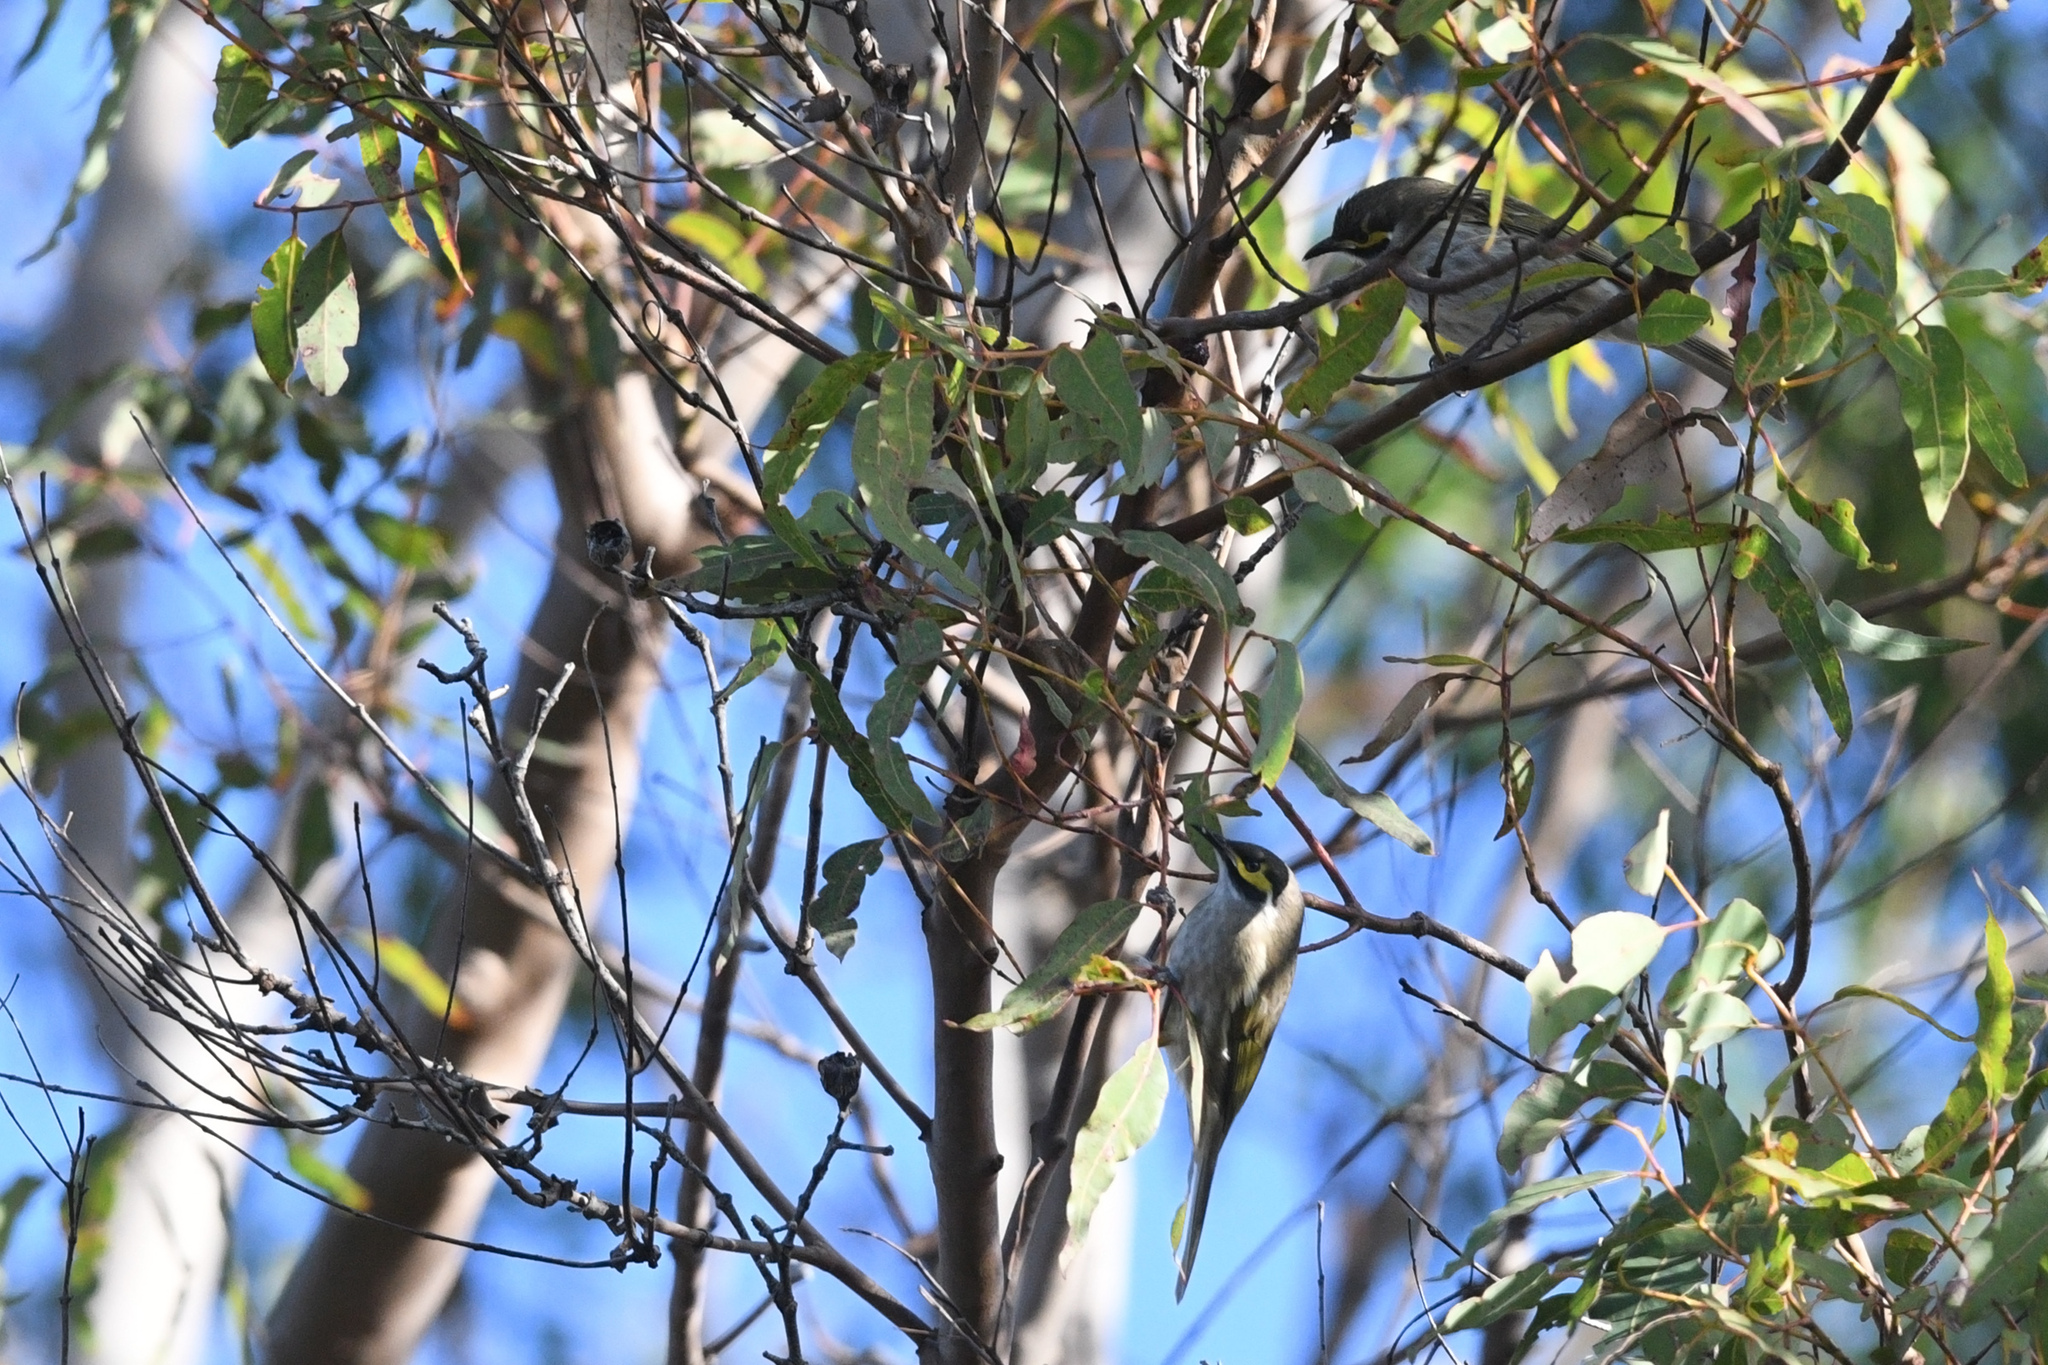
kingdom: Animalia
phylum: Chordata
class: Aves
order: Passeriformes
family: Meliphagidae
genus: Caligavis
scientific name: Caligavis chrysops
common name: Yellow-faced honeyeater
